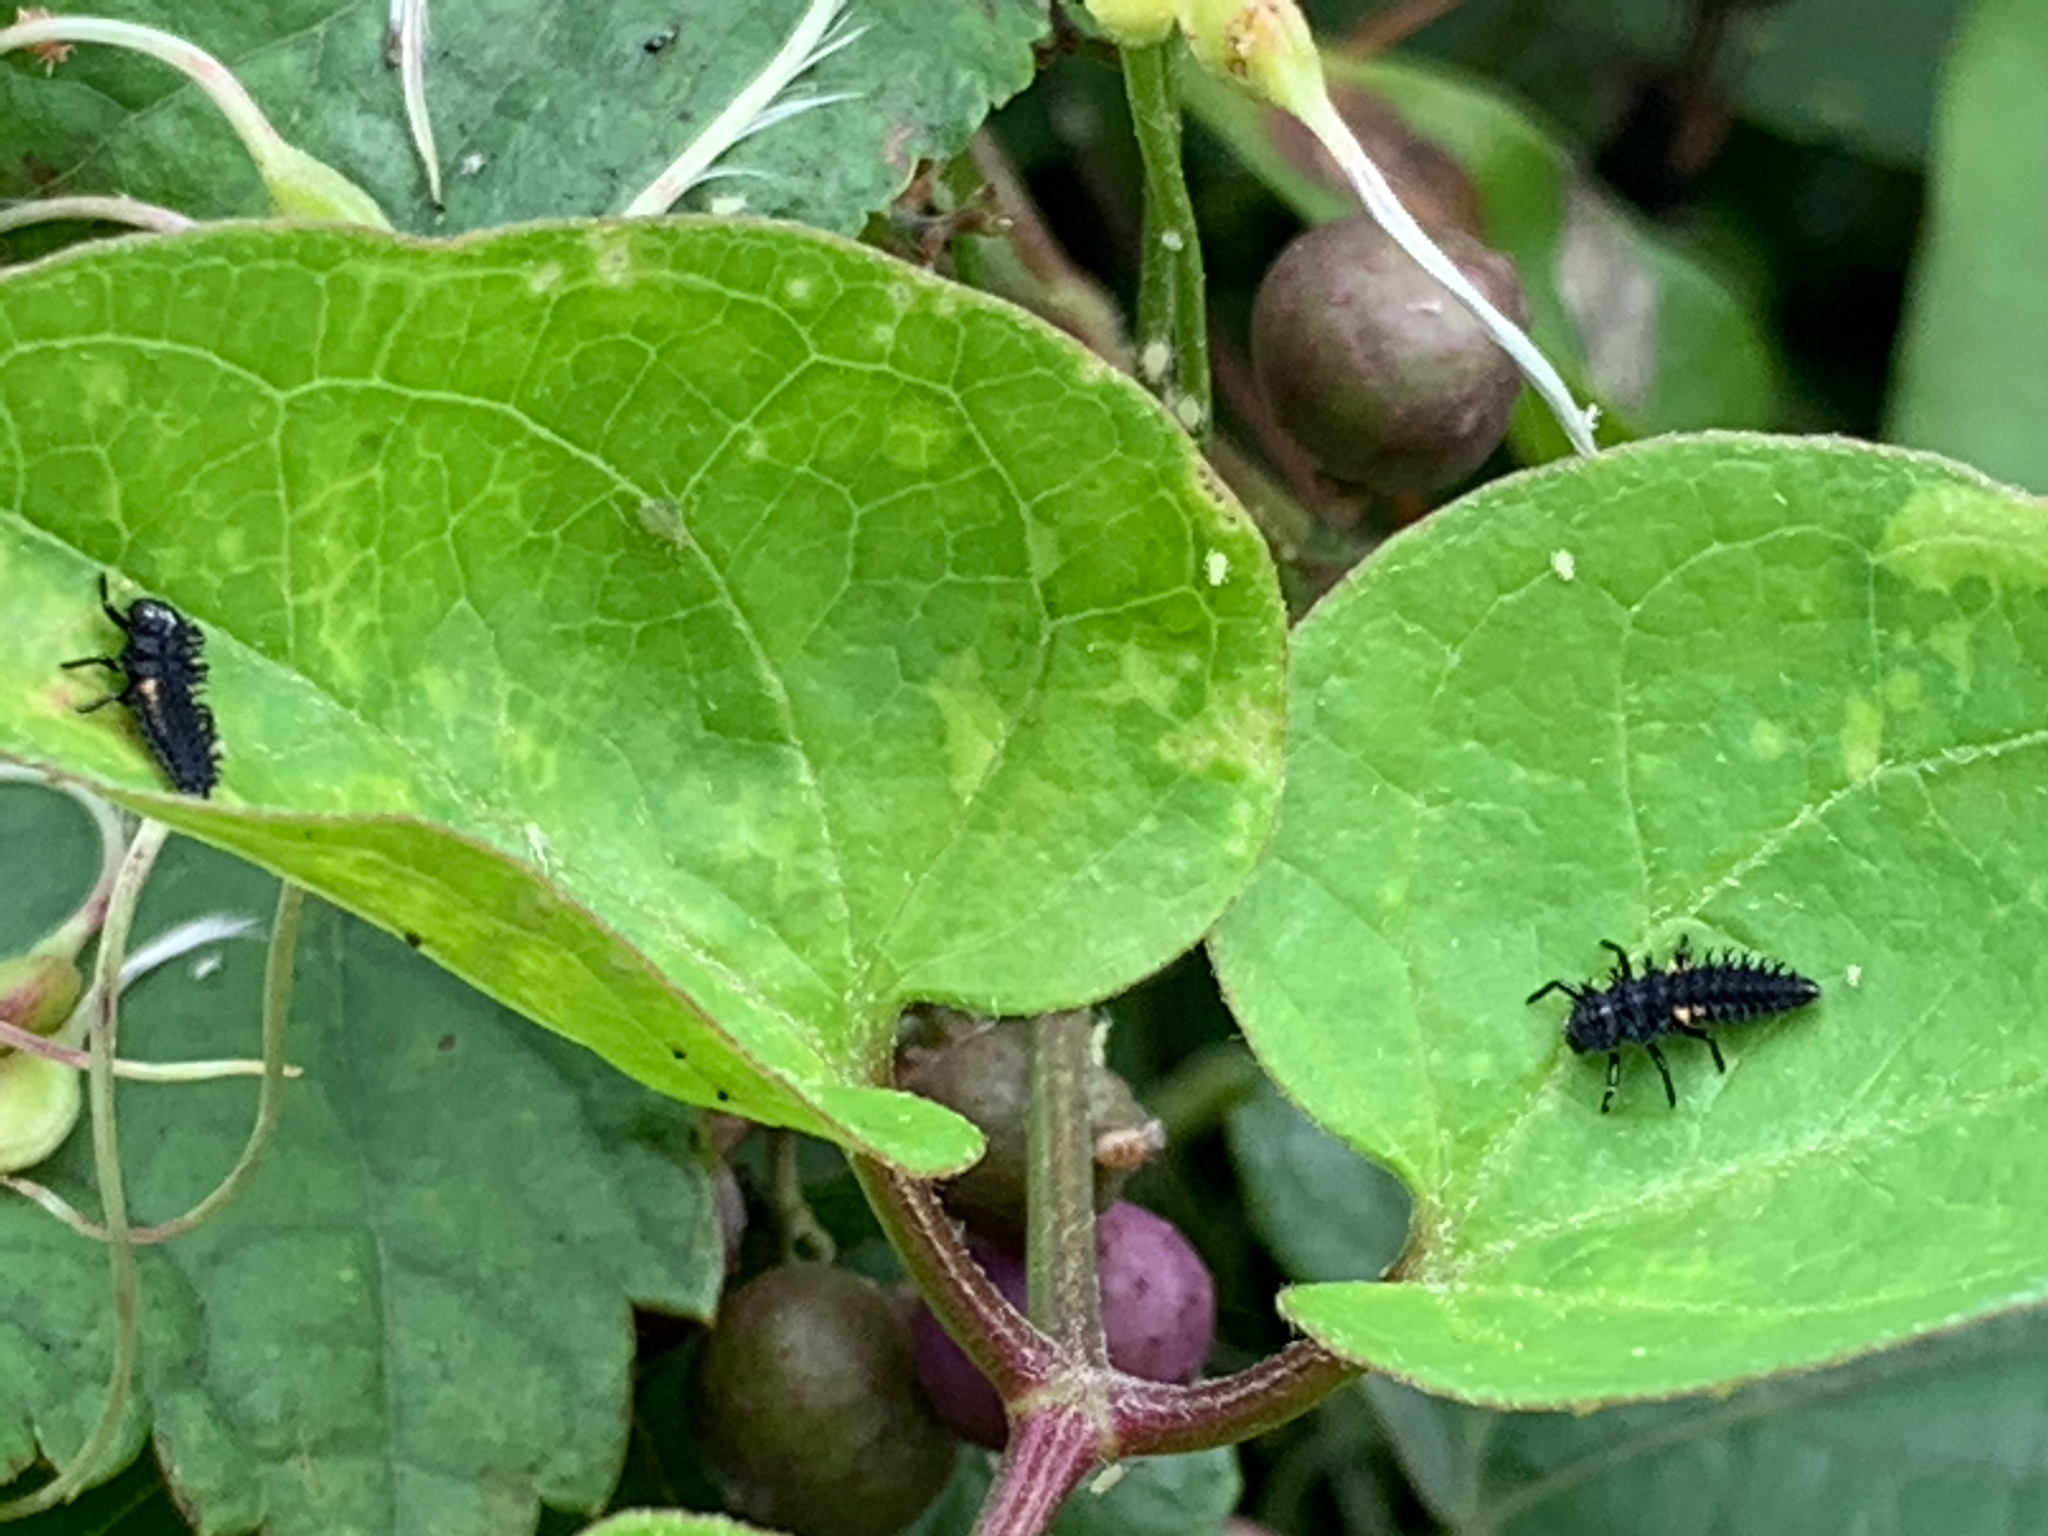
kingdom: Animalia
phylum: Arthropoda
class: Insecta
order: Coleoptera
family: Coccinellidae
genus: Harmonia
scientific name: Harmonia axyridis
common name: Harlequin ladybird
